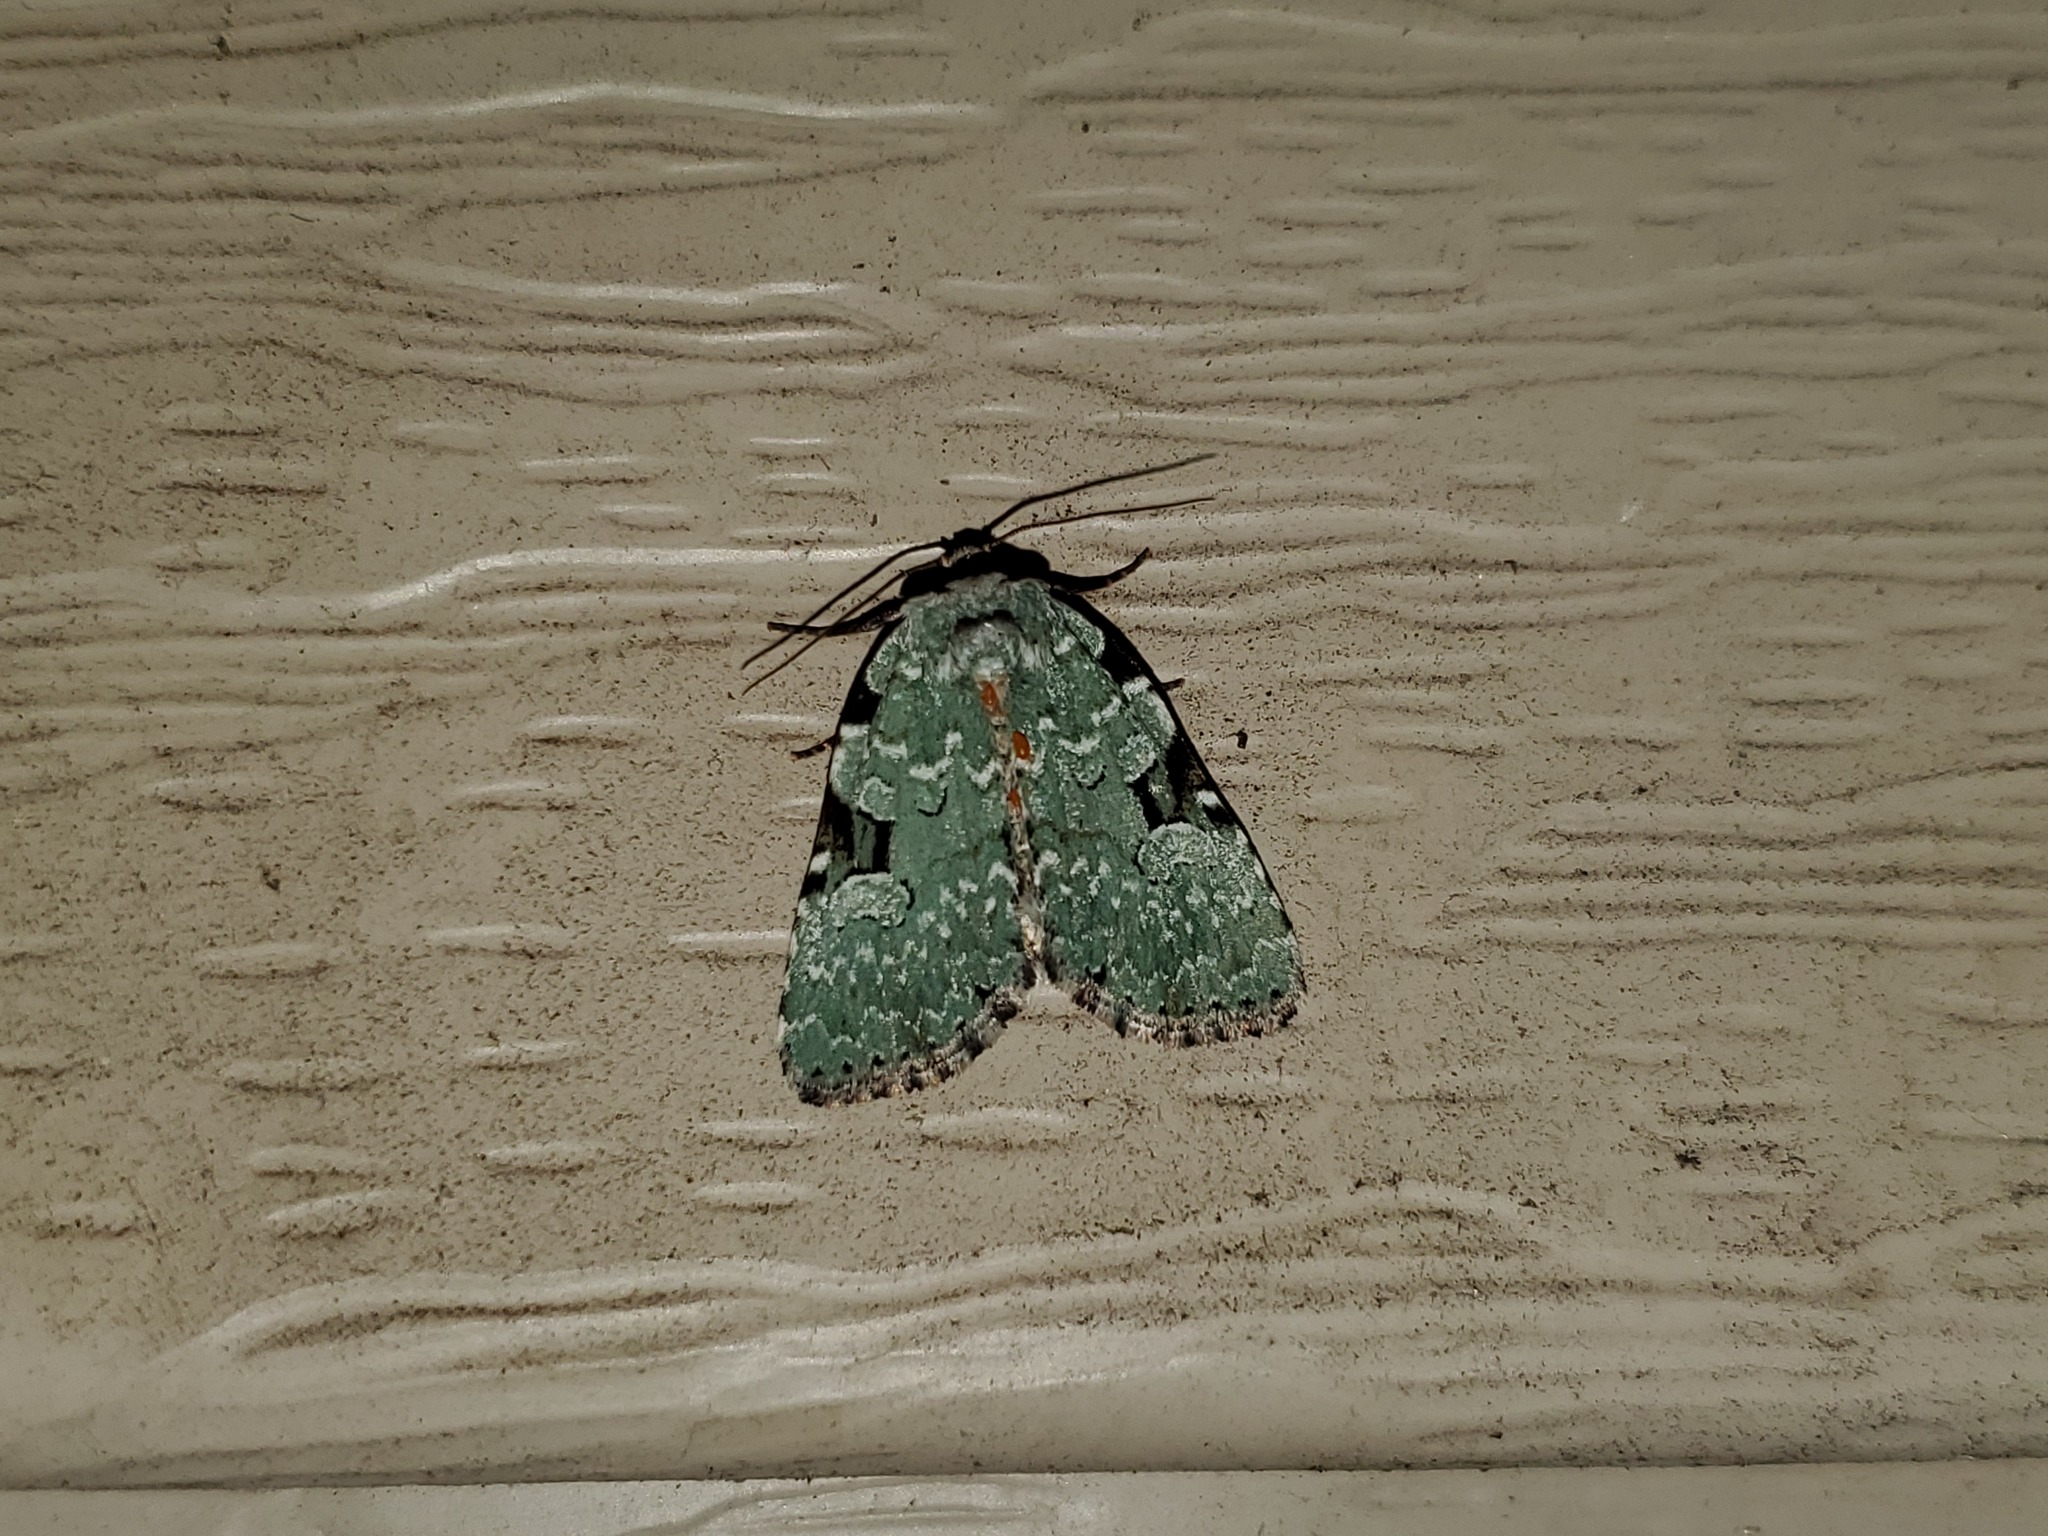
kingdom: Animalia
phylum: Arthropoda
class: Insecta
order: Lepidoptera
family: Noctuidae
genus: Leuconycta
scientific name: Leuconycta diphteroides
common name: Green leuconycta moth
